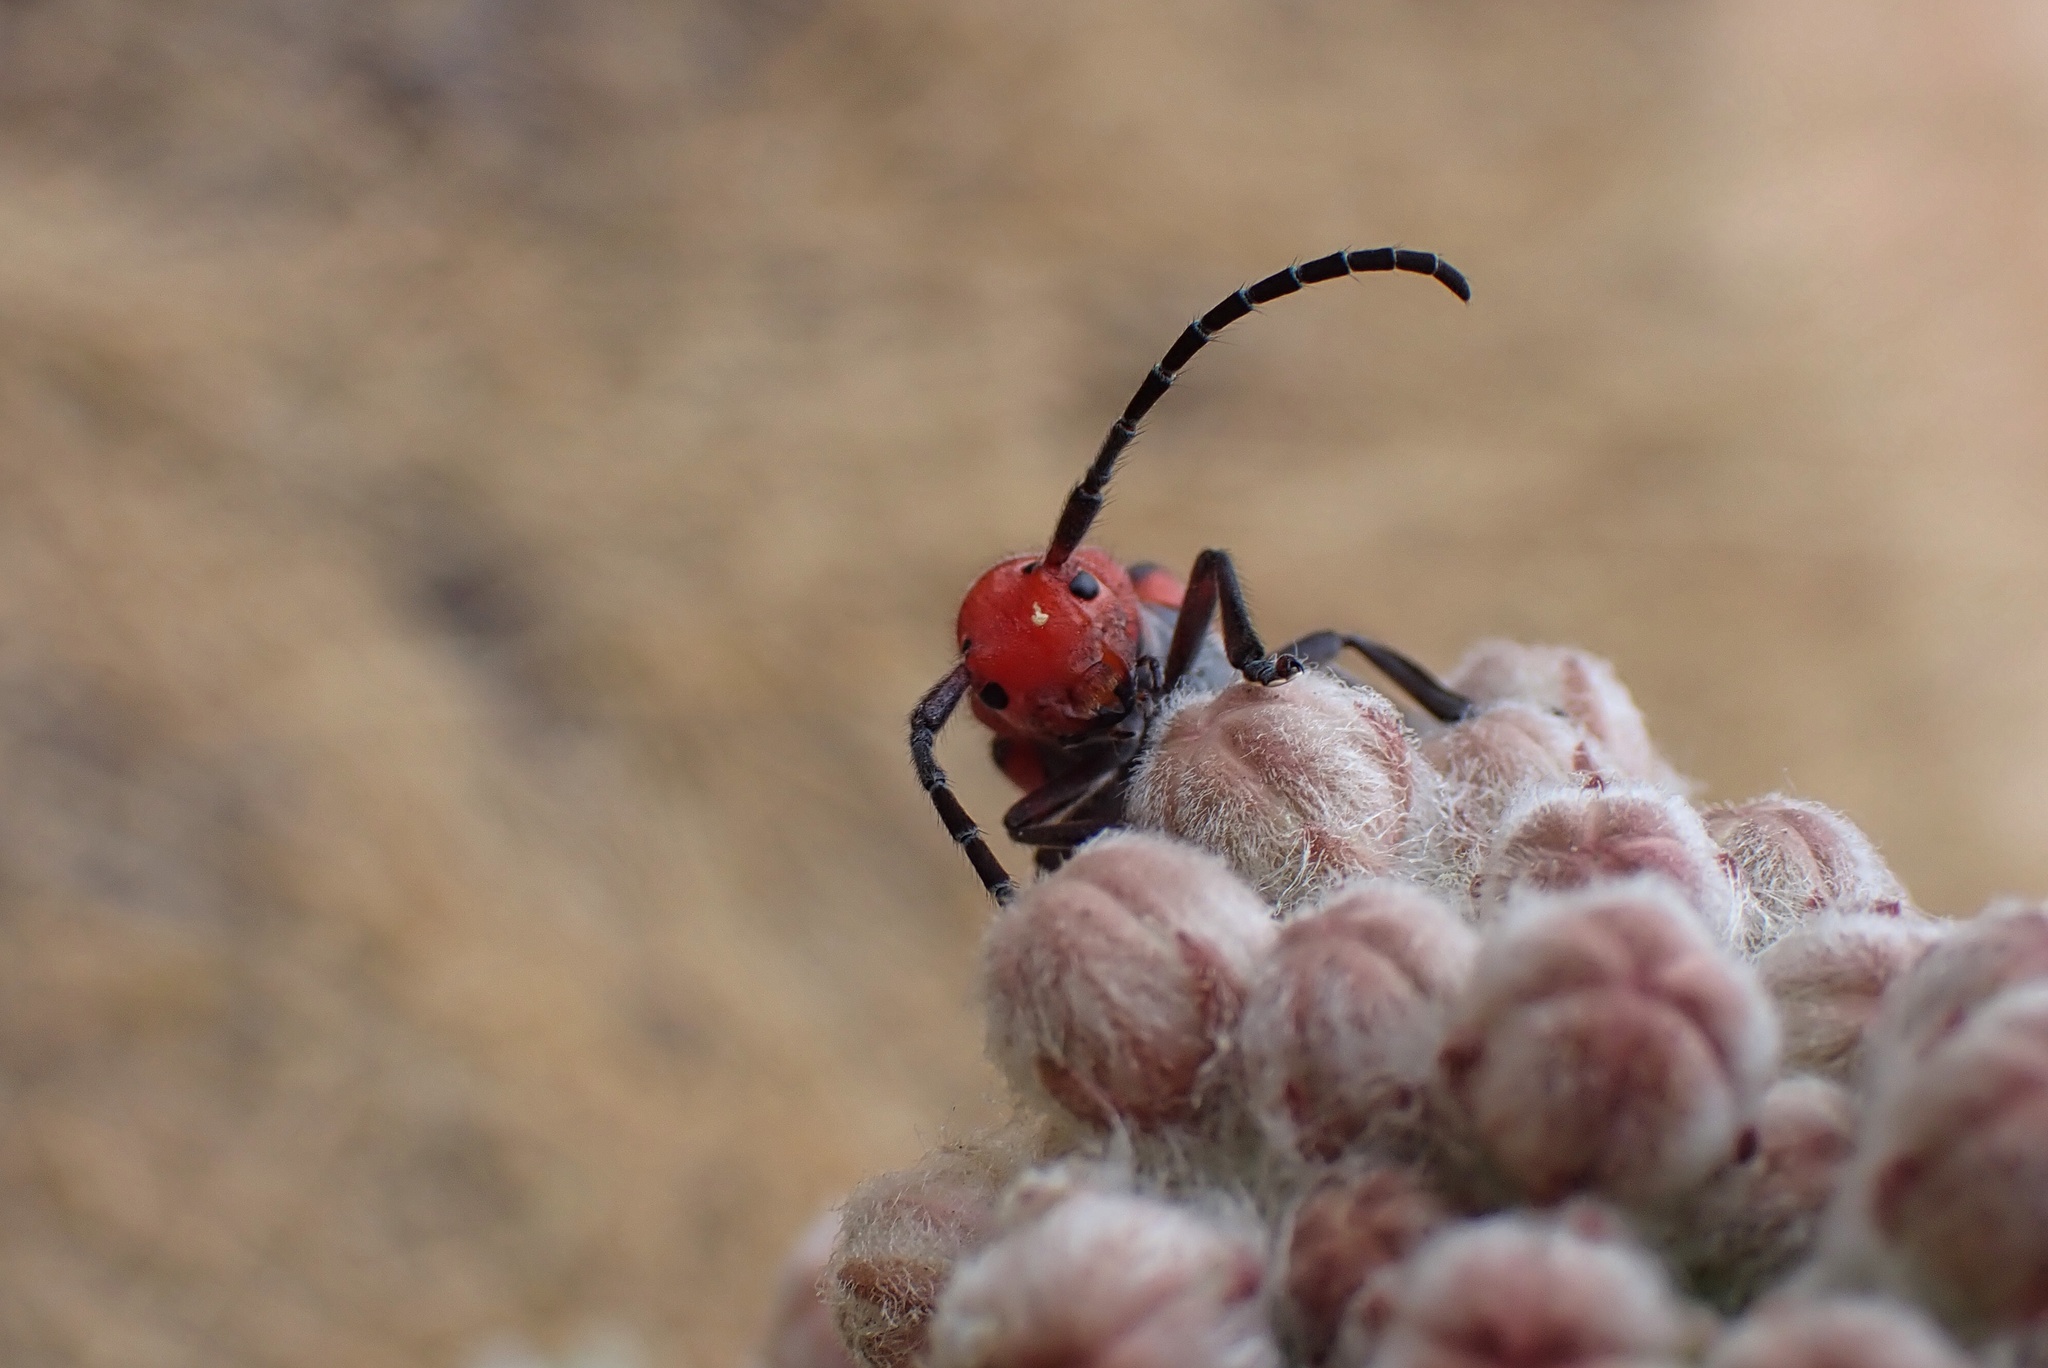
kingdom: Animalia
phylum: Arthropoda
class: Insecta
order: Coleoptera
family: Cerambycidae
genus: Tetraopes
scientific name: Tetraopes basalis
